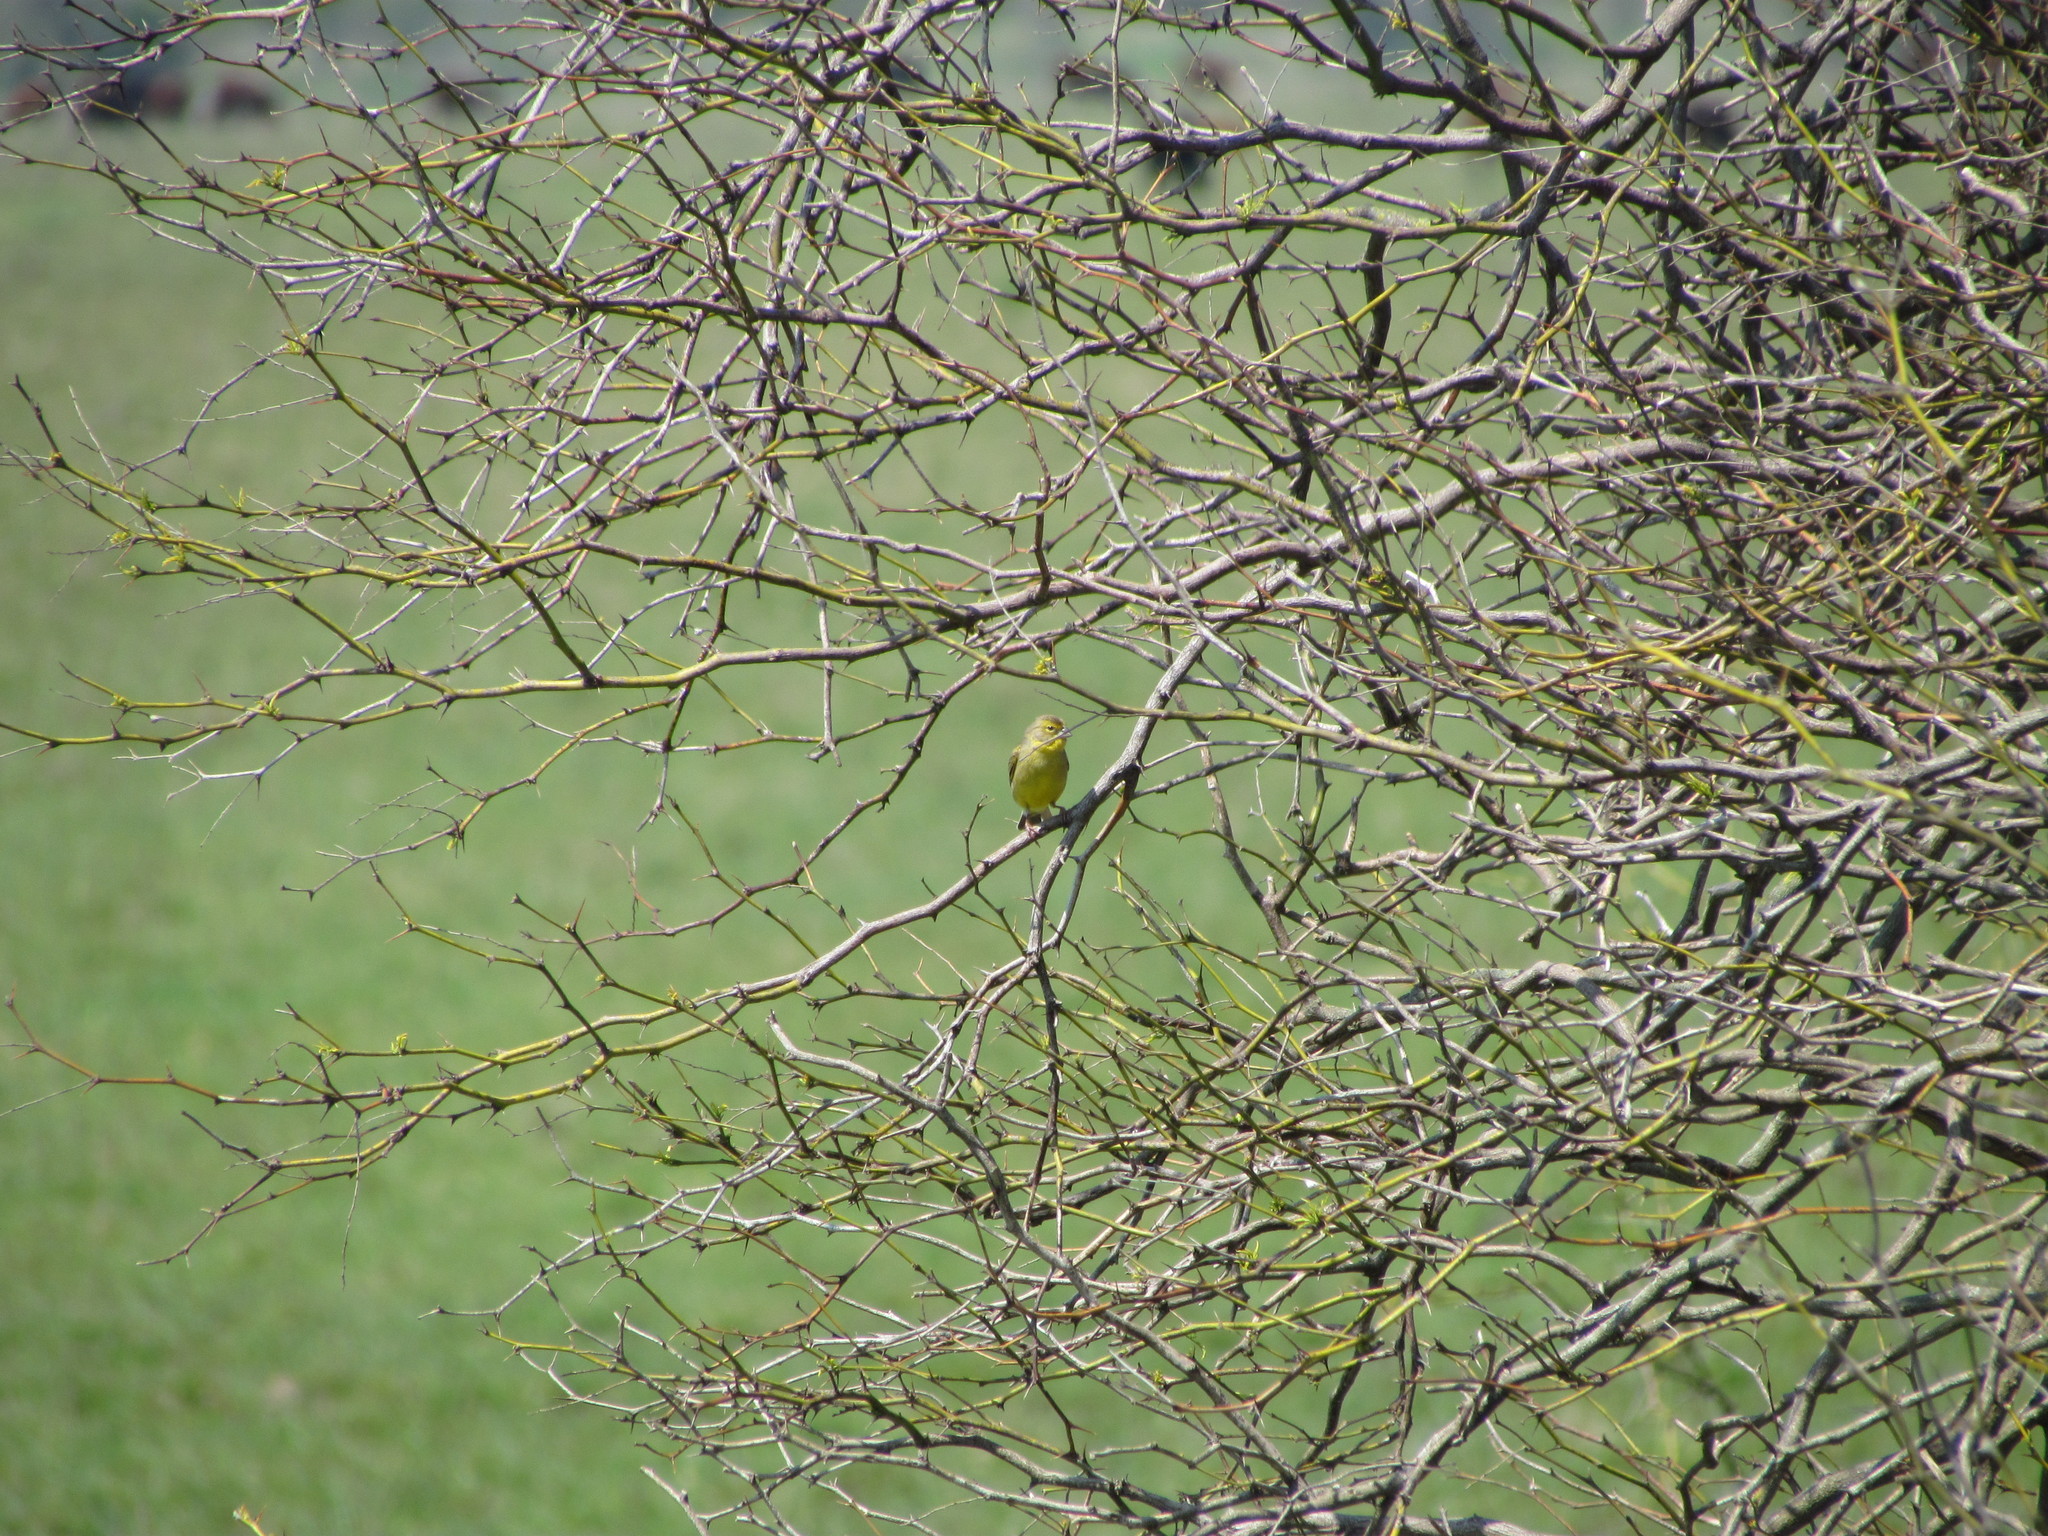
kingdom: Animalia
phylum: Chordata
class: Aves
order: Passeriformes
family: Thraupidae
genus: Sicalis
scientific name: Sicalis luteola
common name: Grassland yellow-finch
